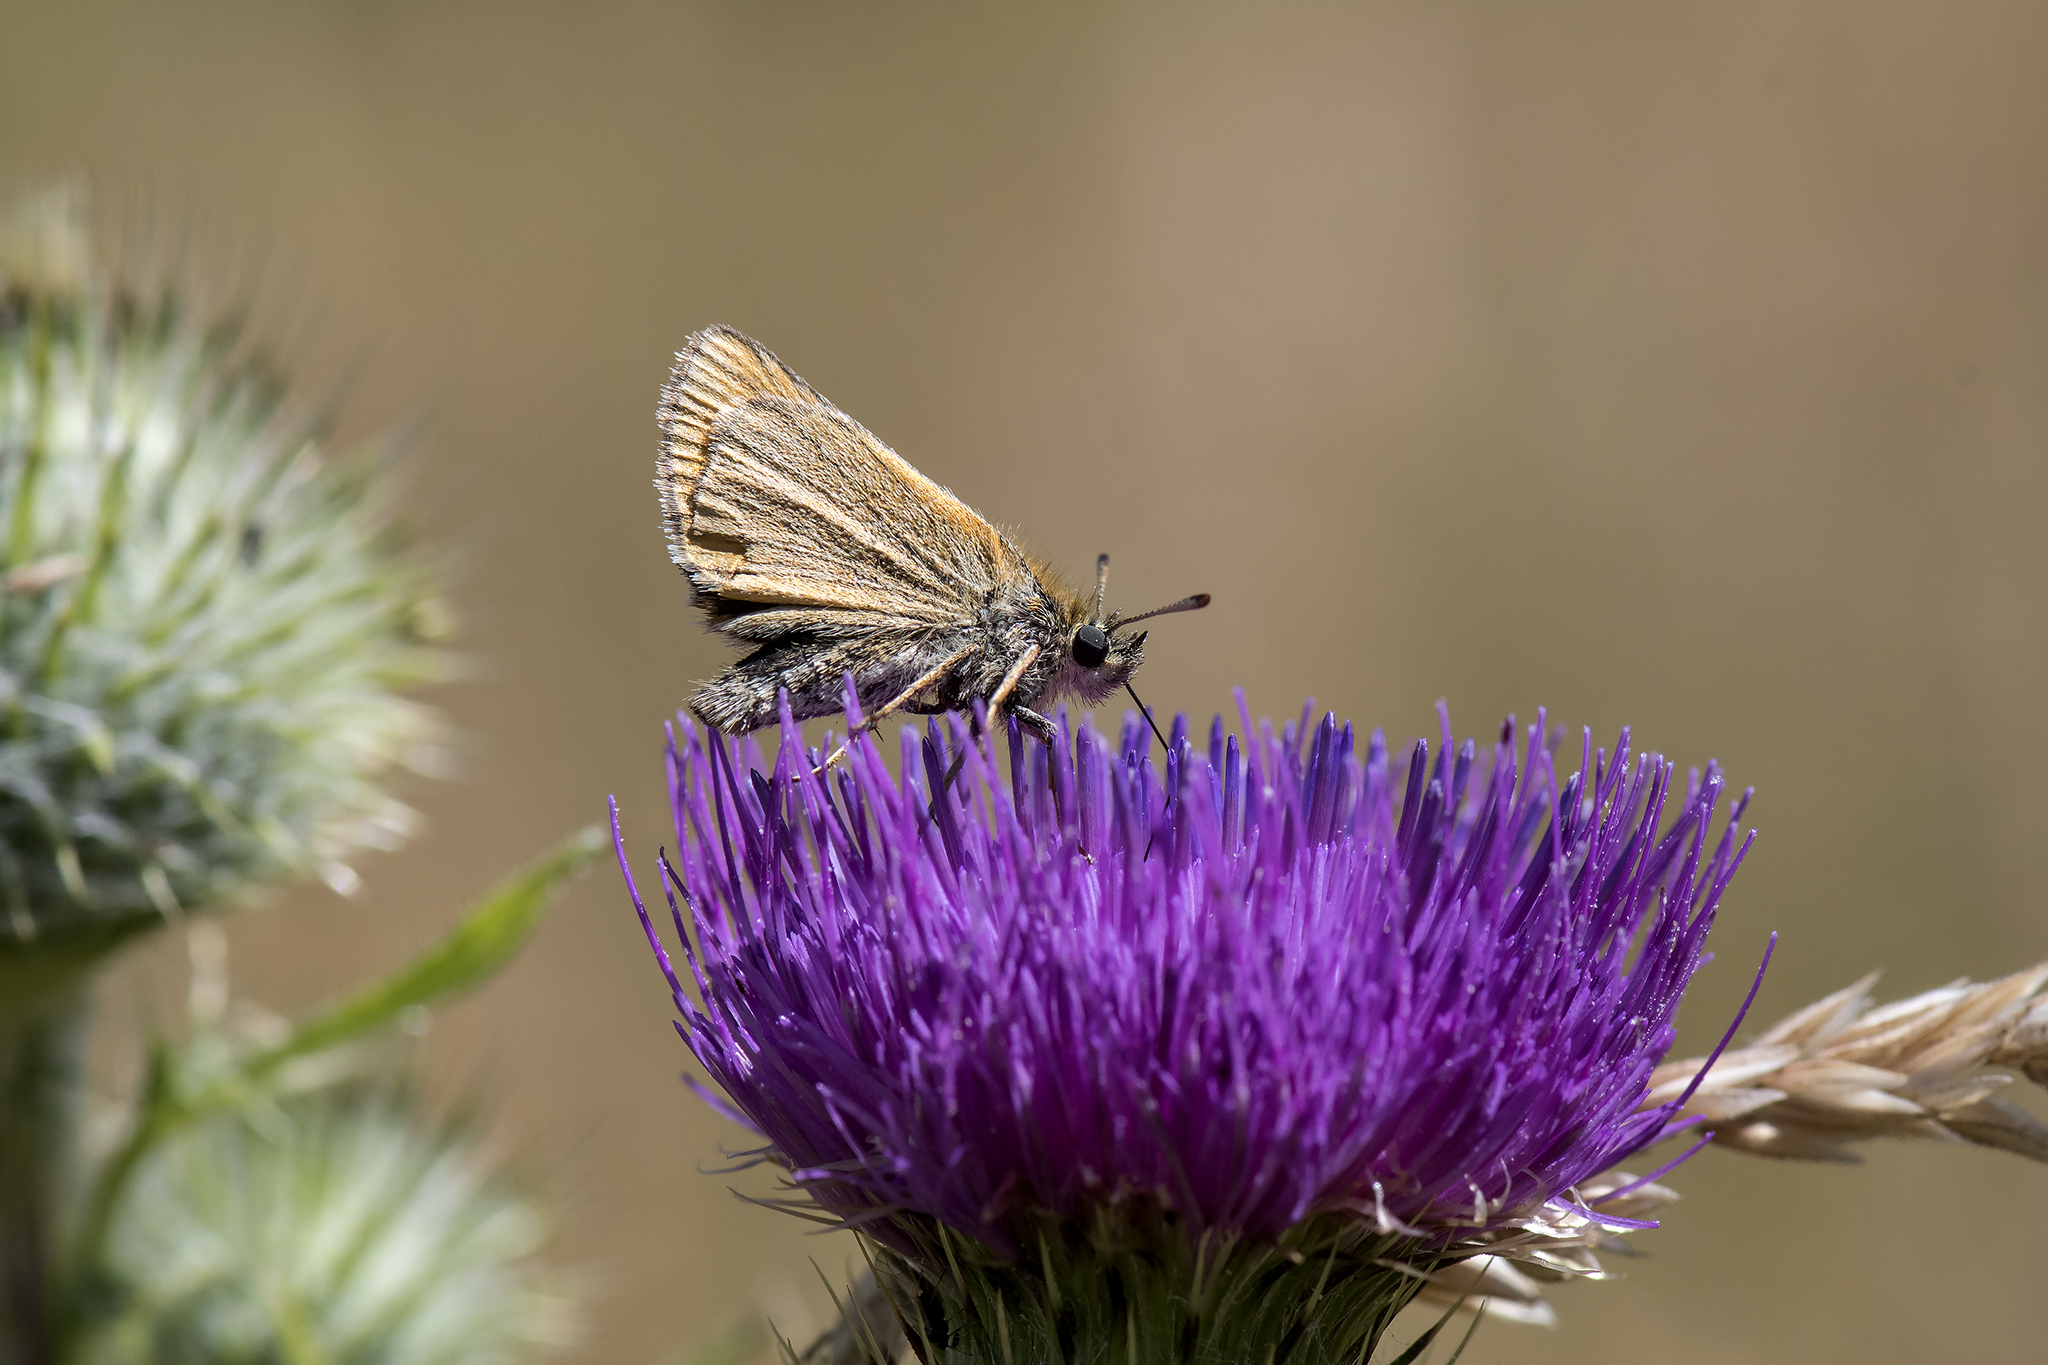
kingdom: Animalia
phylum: Arthropoda
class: Insecta
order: Lepidoptera
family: Hesperiidae
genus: Thymelicus
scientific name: Thymelicus lineola
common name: Essex skipper
